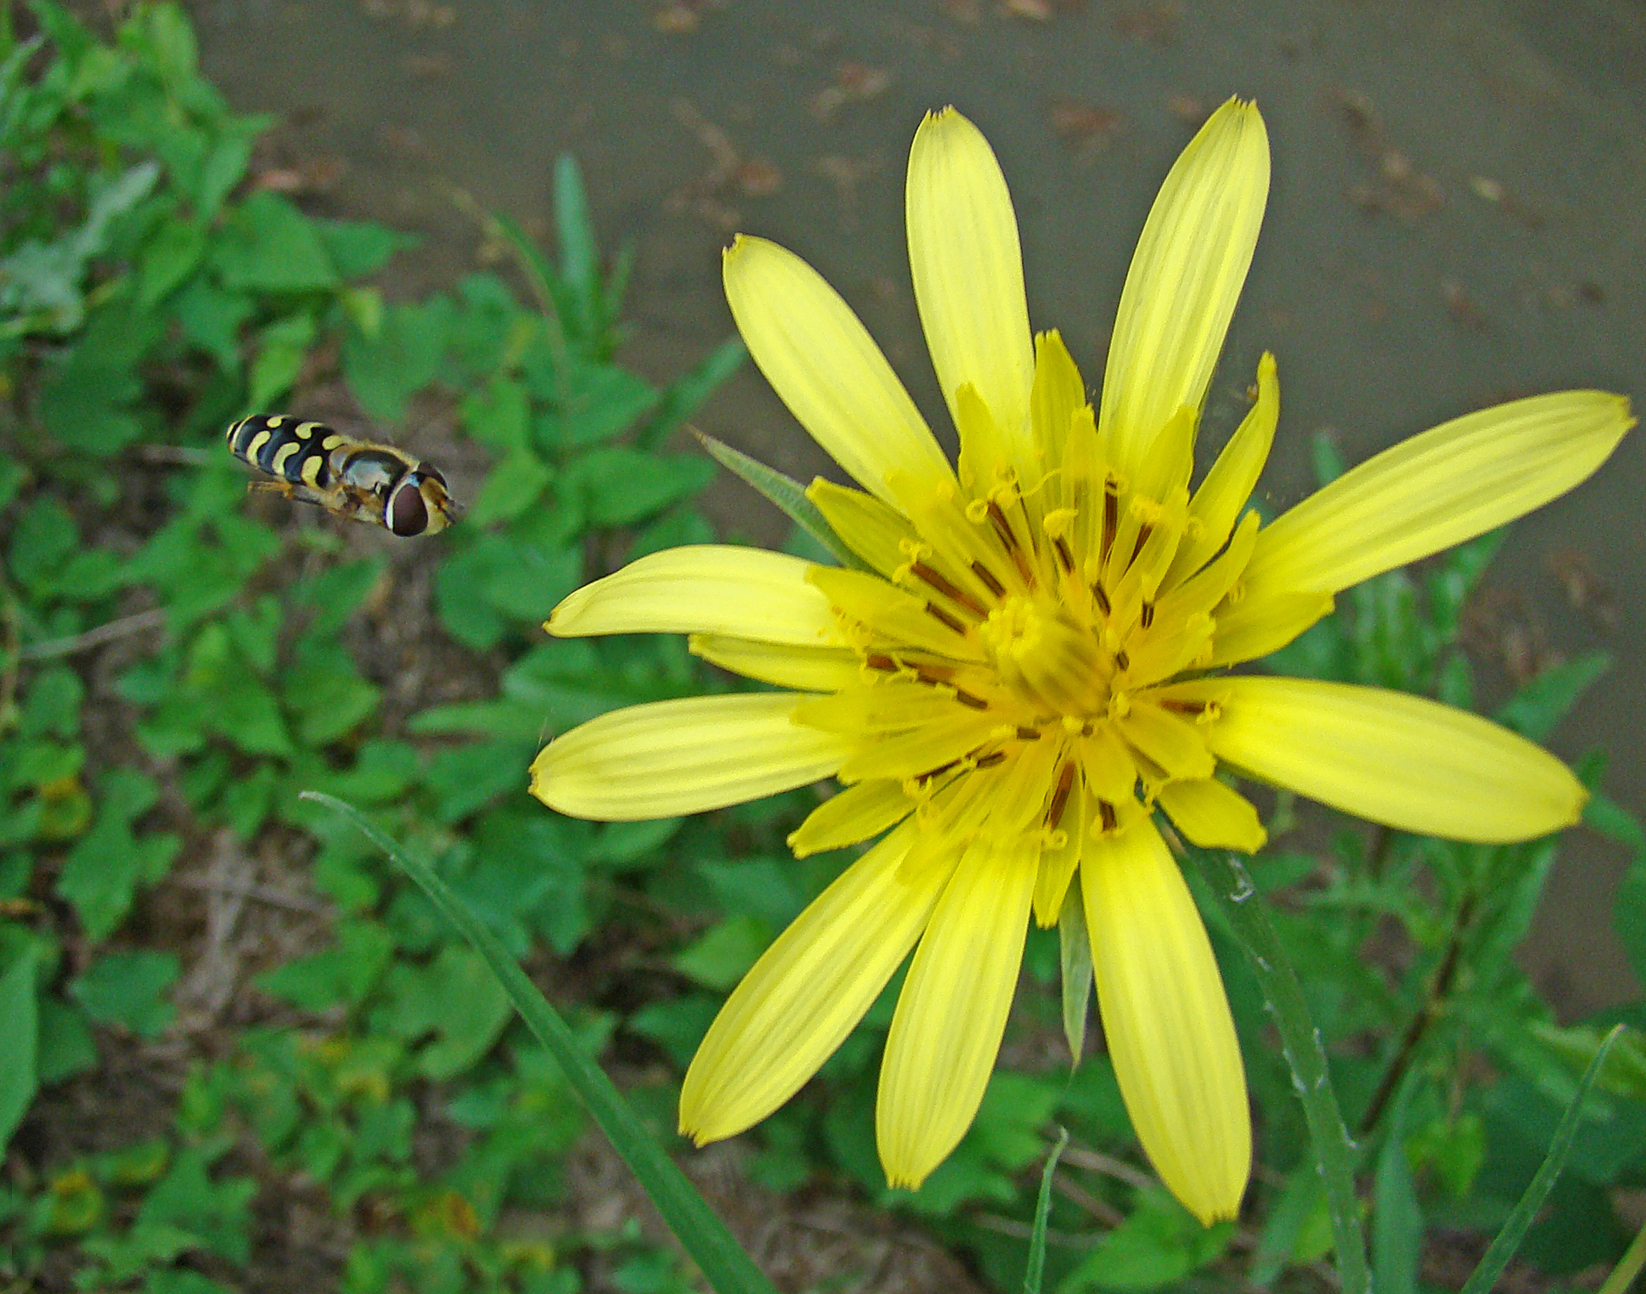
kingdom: Animalia
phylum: Arthropoda
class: Insecta
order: Diptera
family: Syrphidae
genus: Scaeva
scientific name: Scaeva dignota
